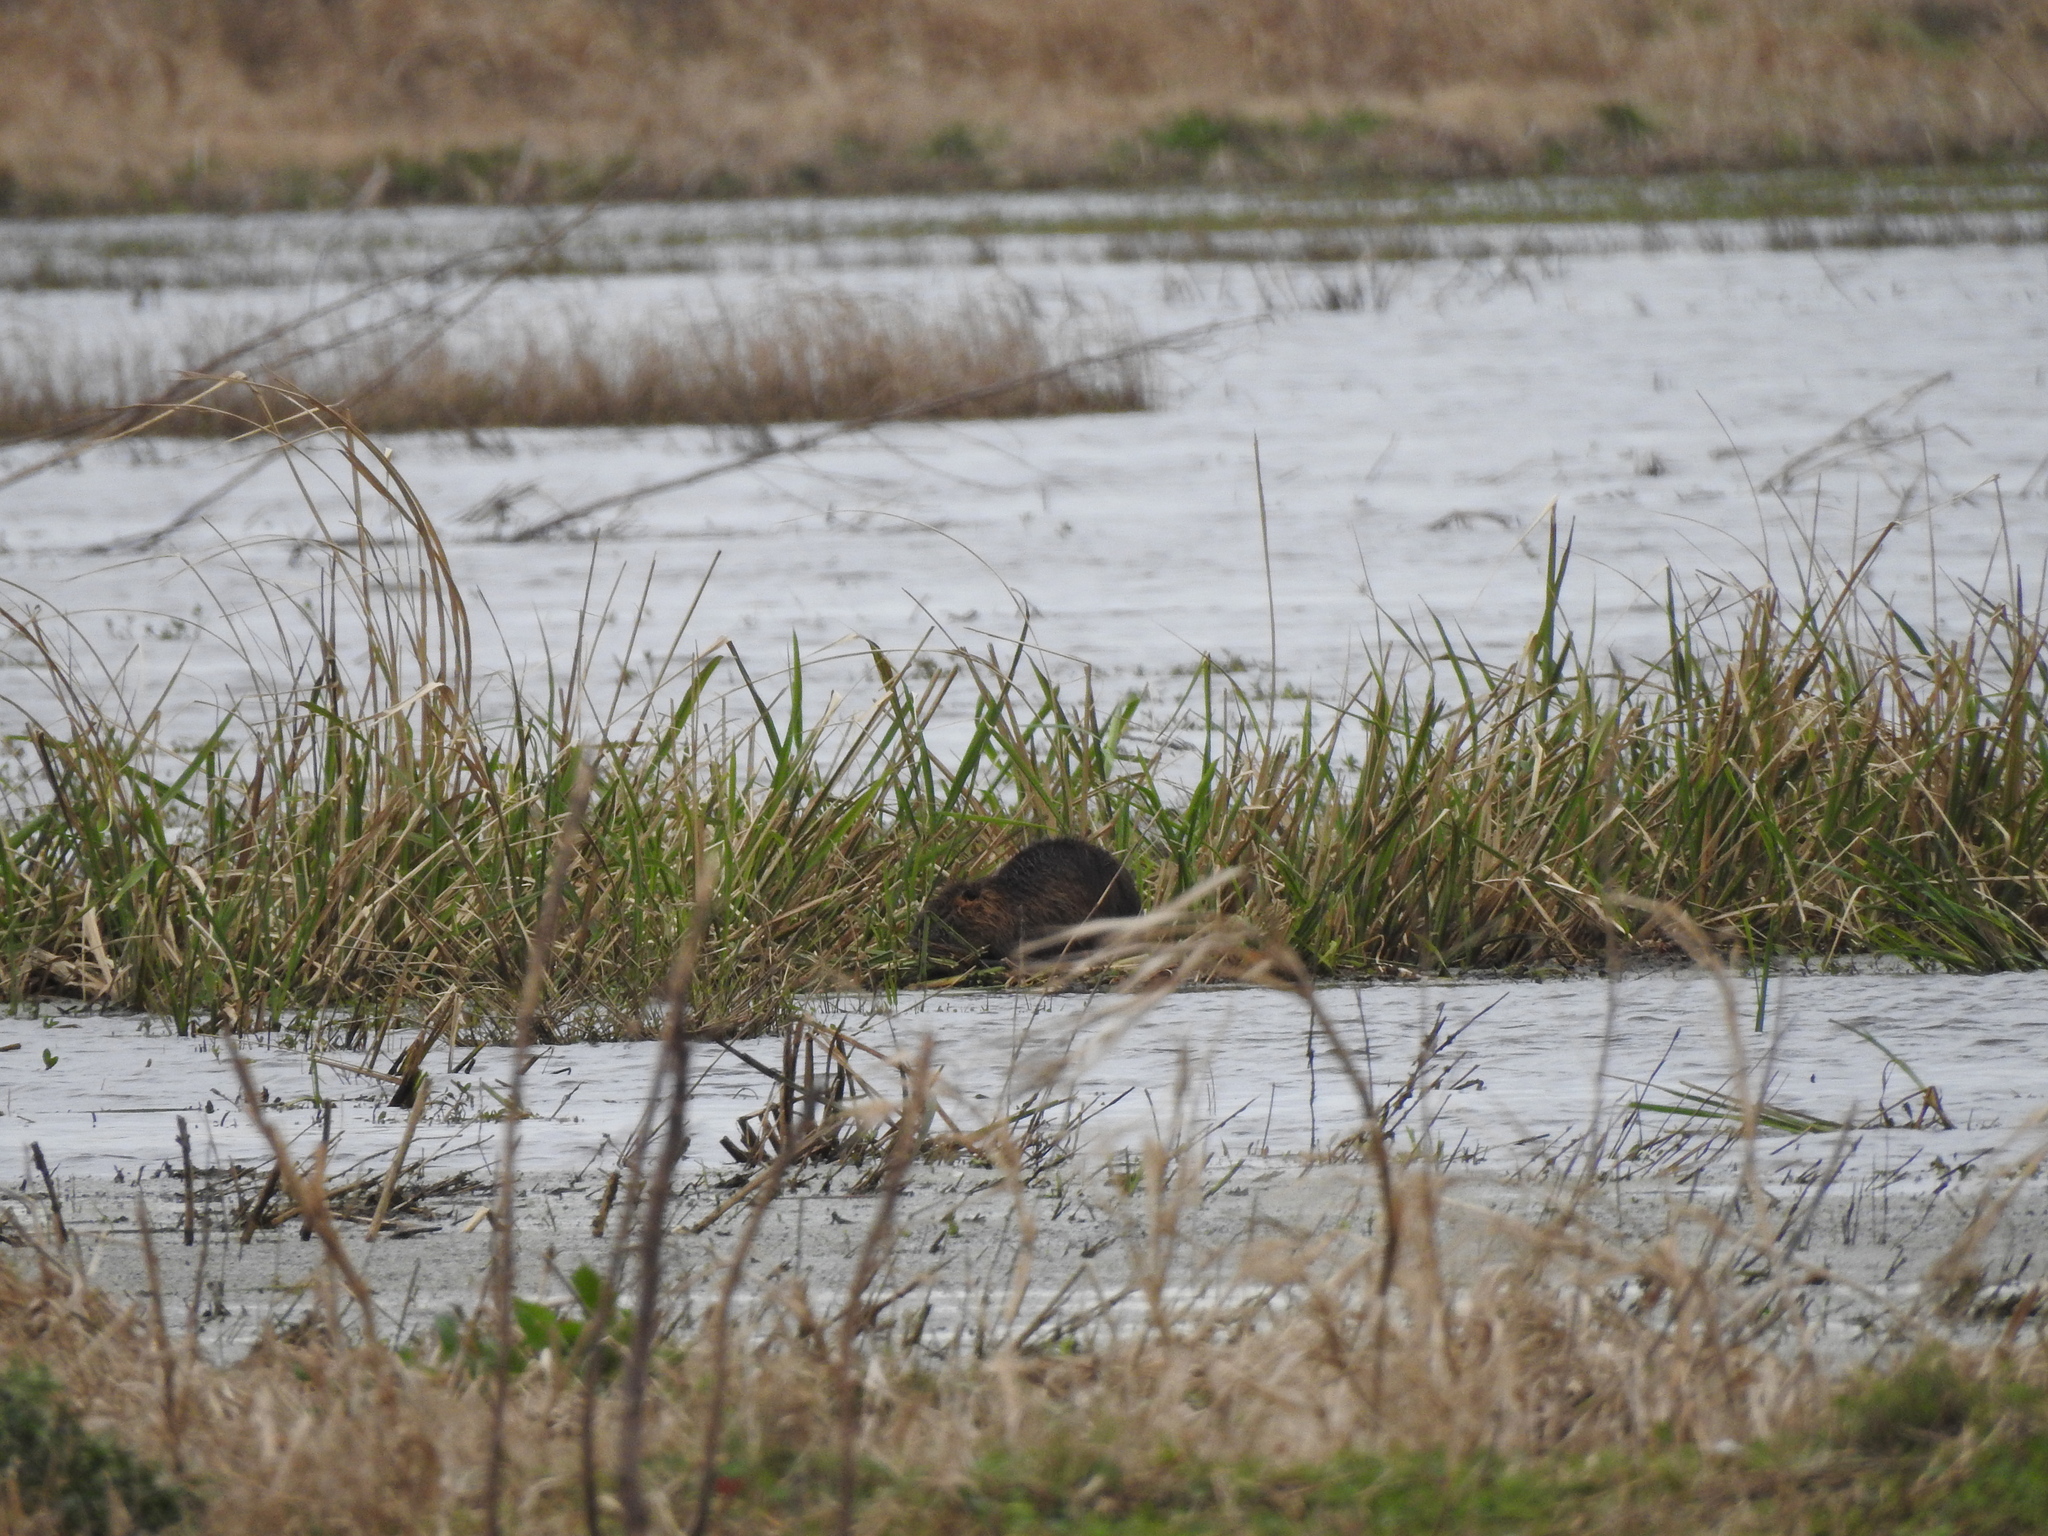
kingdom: Animalia
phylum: Chordata
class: Mammalia
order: Rodentia
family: Myocastoridae
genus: Myocastor
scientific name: Myocastor coypus
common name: Coypu
